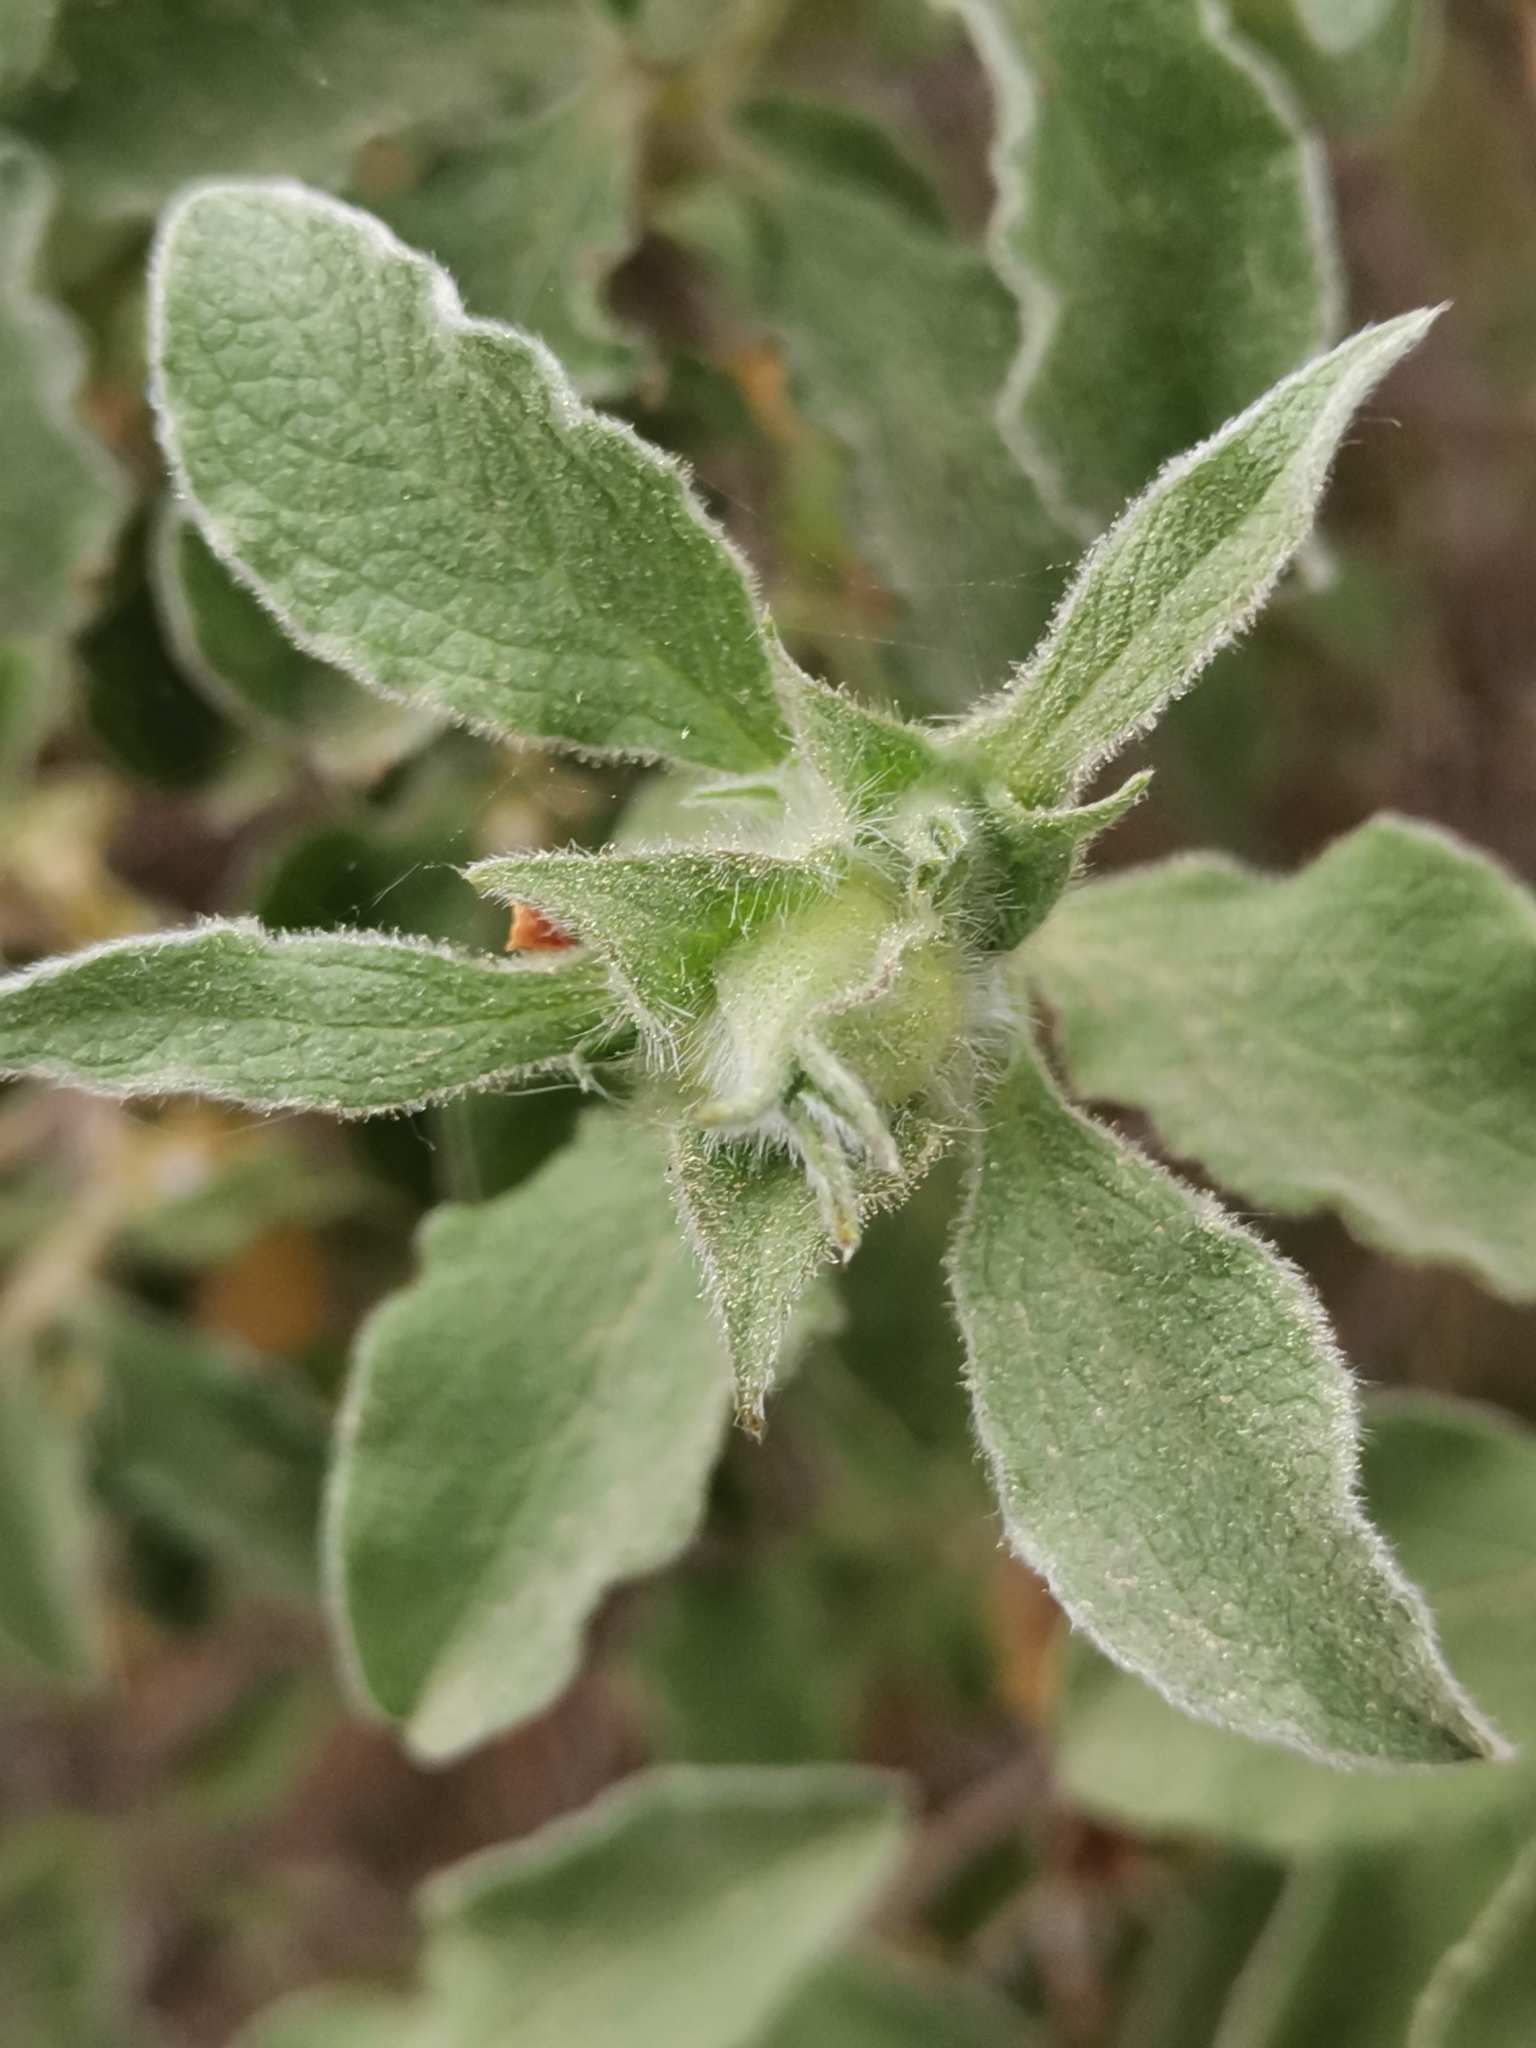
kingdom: Plantae
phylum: Tracheophyta
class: Magnoliopsida
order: Malvales
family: Cistaceae
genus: Cistus
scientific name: Cistus creticus
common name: Cretan rockrose
